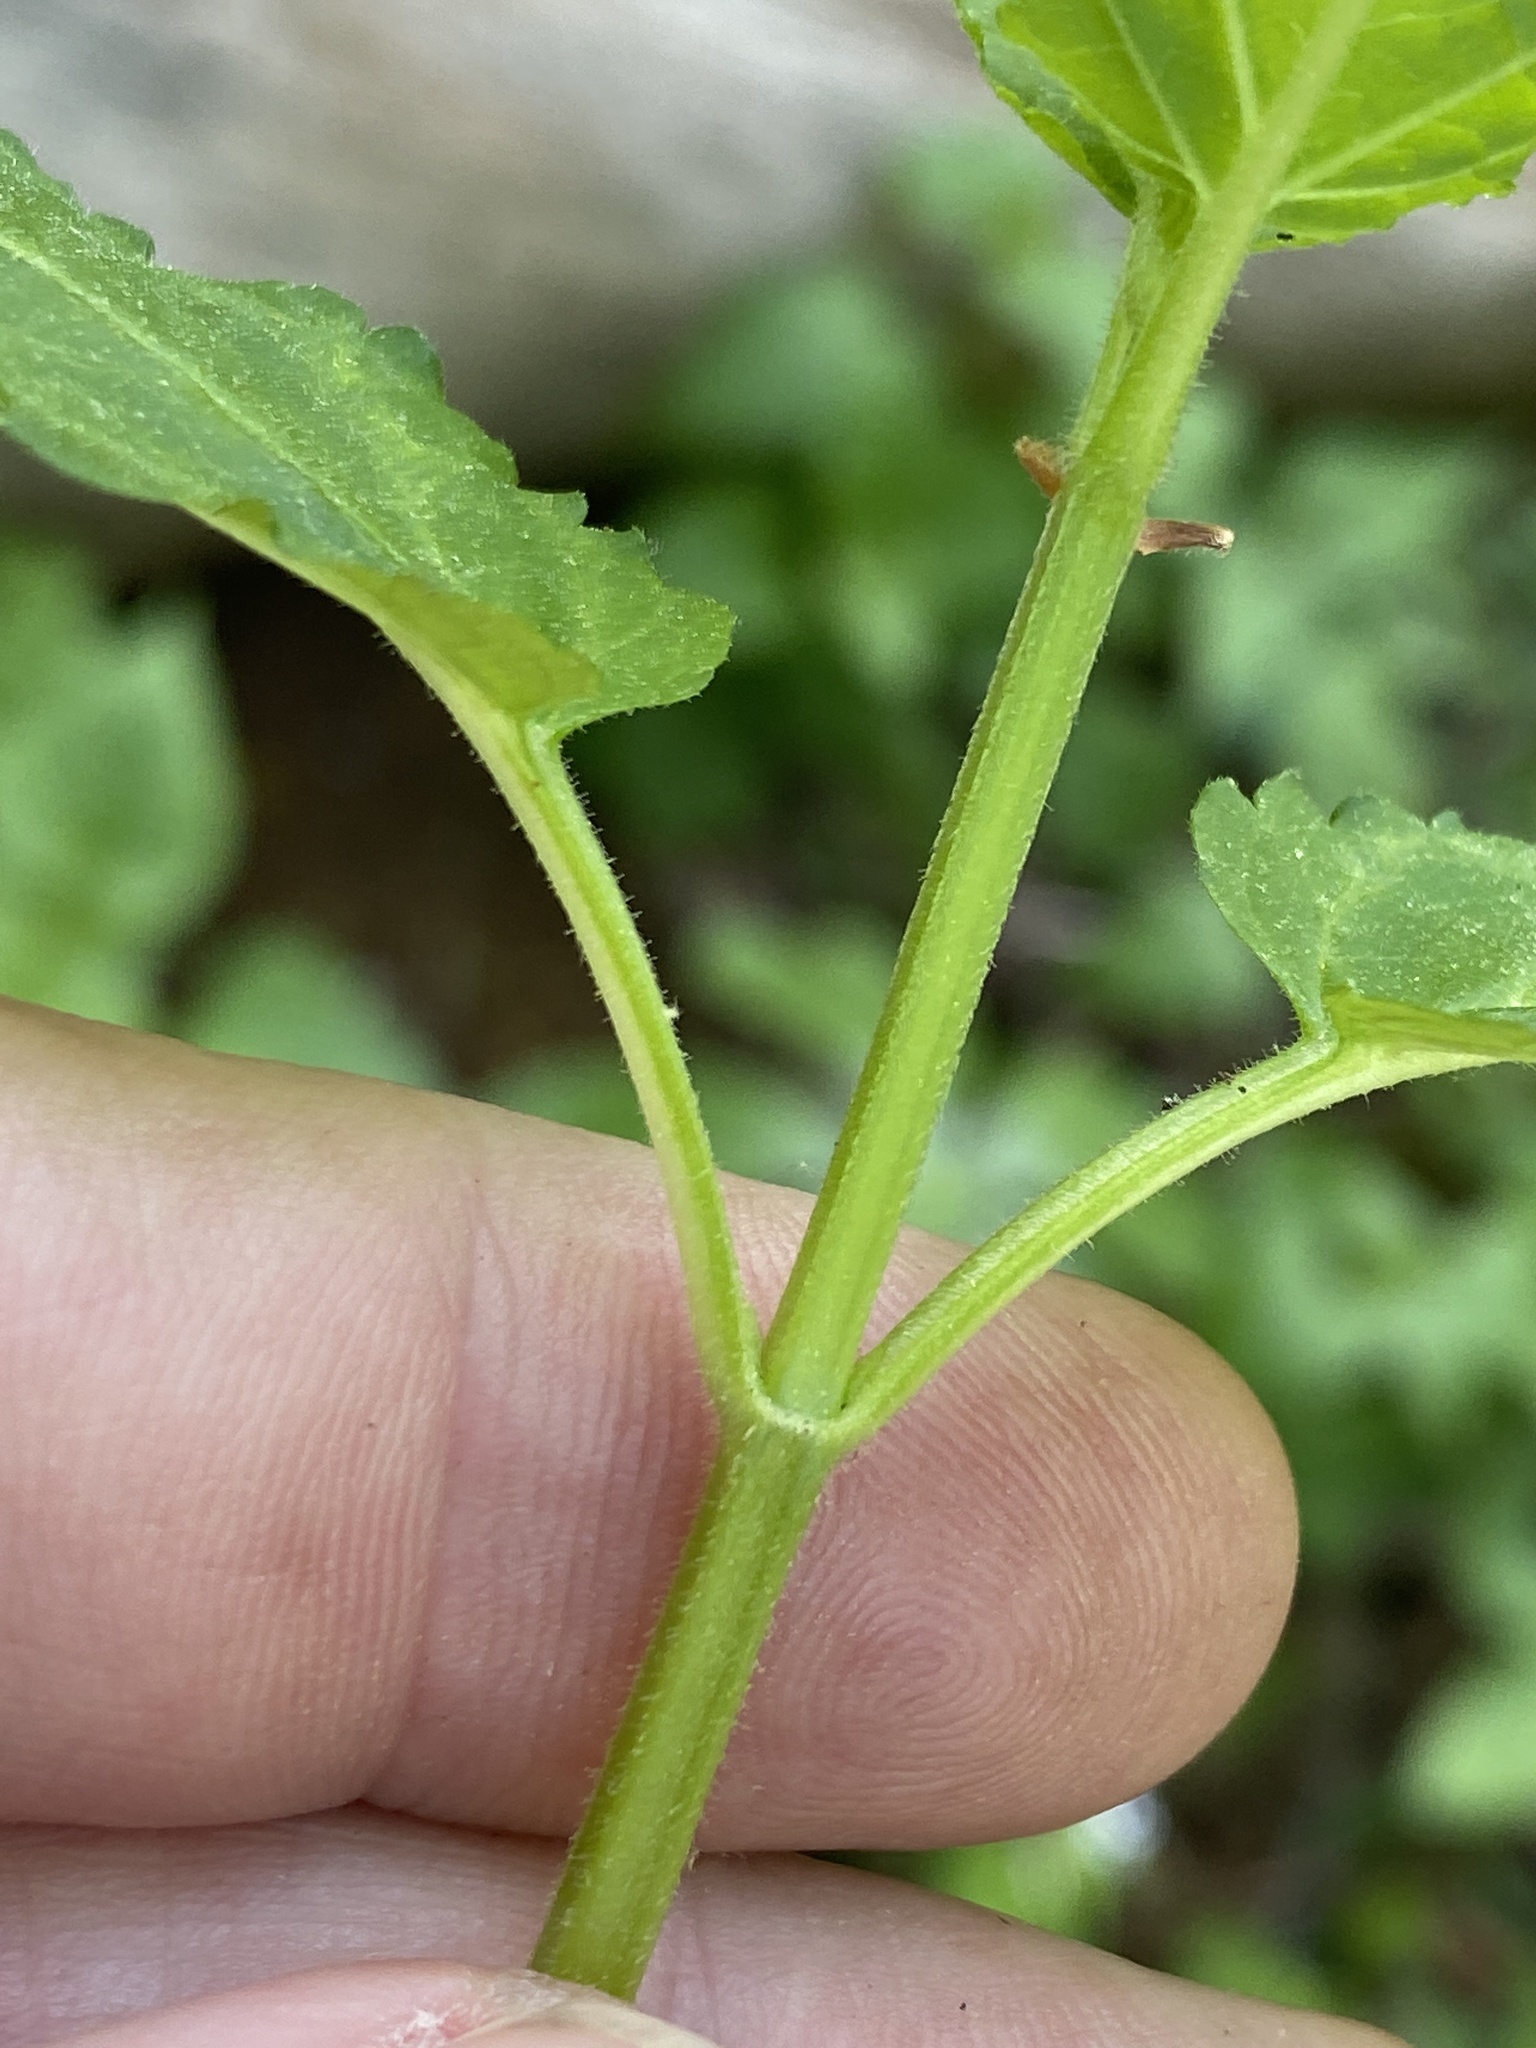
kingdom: Plantae
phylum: Tracheophyta
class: Magnoliopsida
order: Lamiales
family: Lamiaceae
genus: Stachys
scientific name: Stachys latidens
